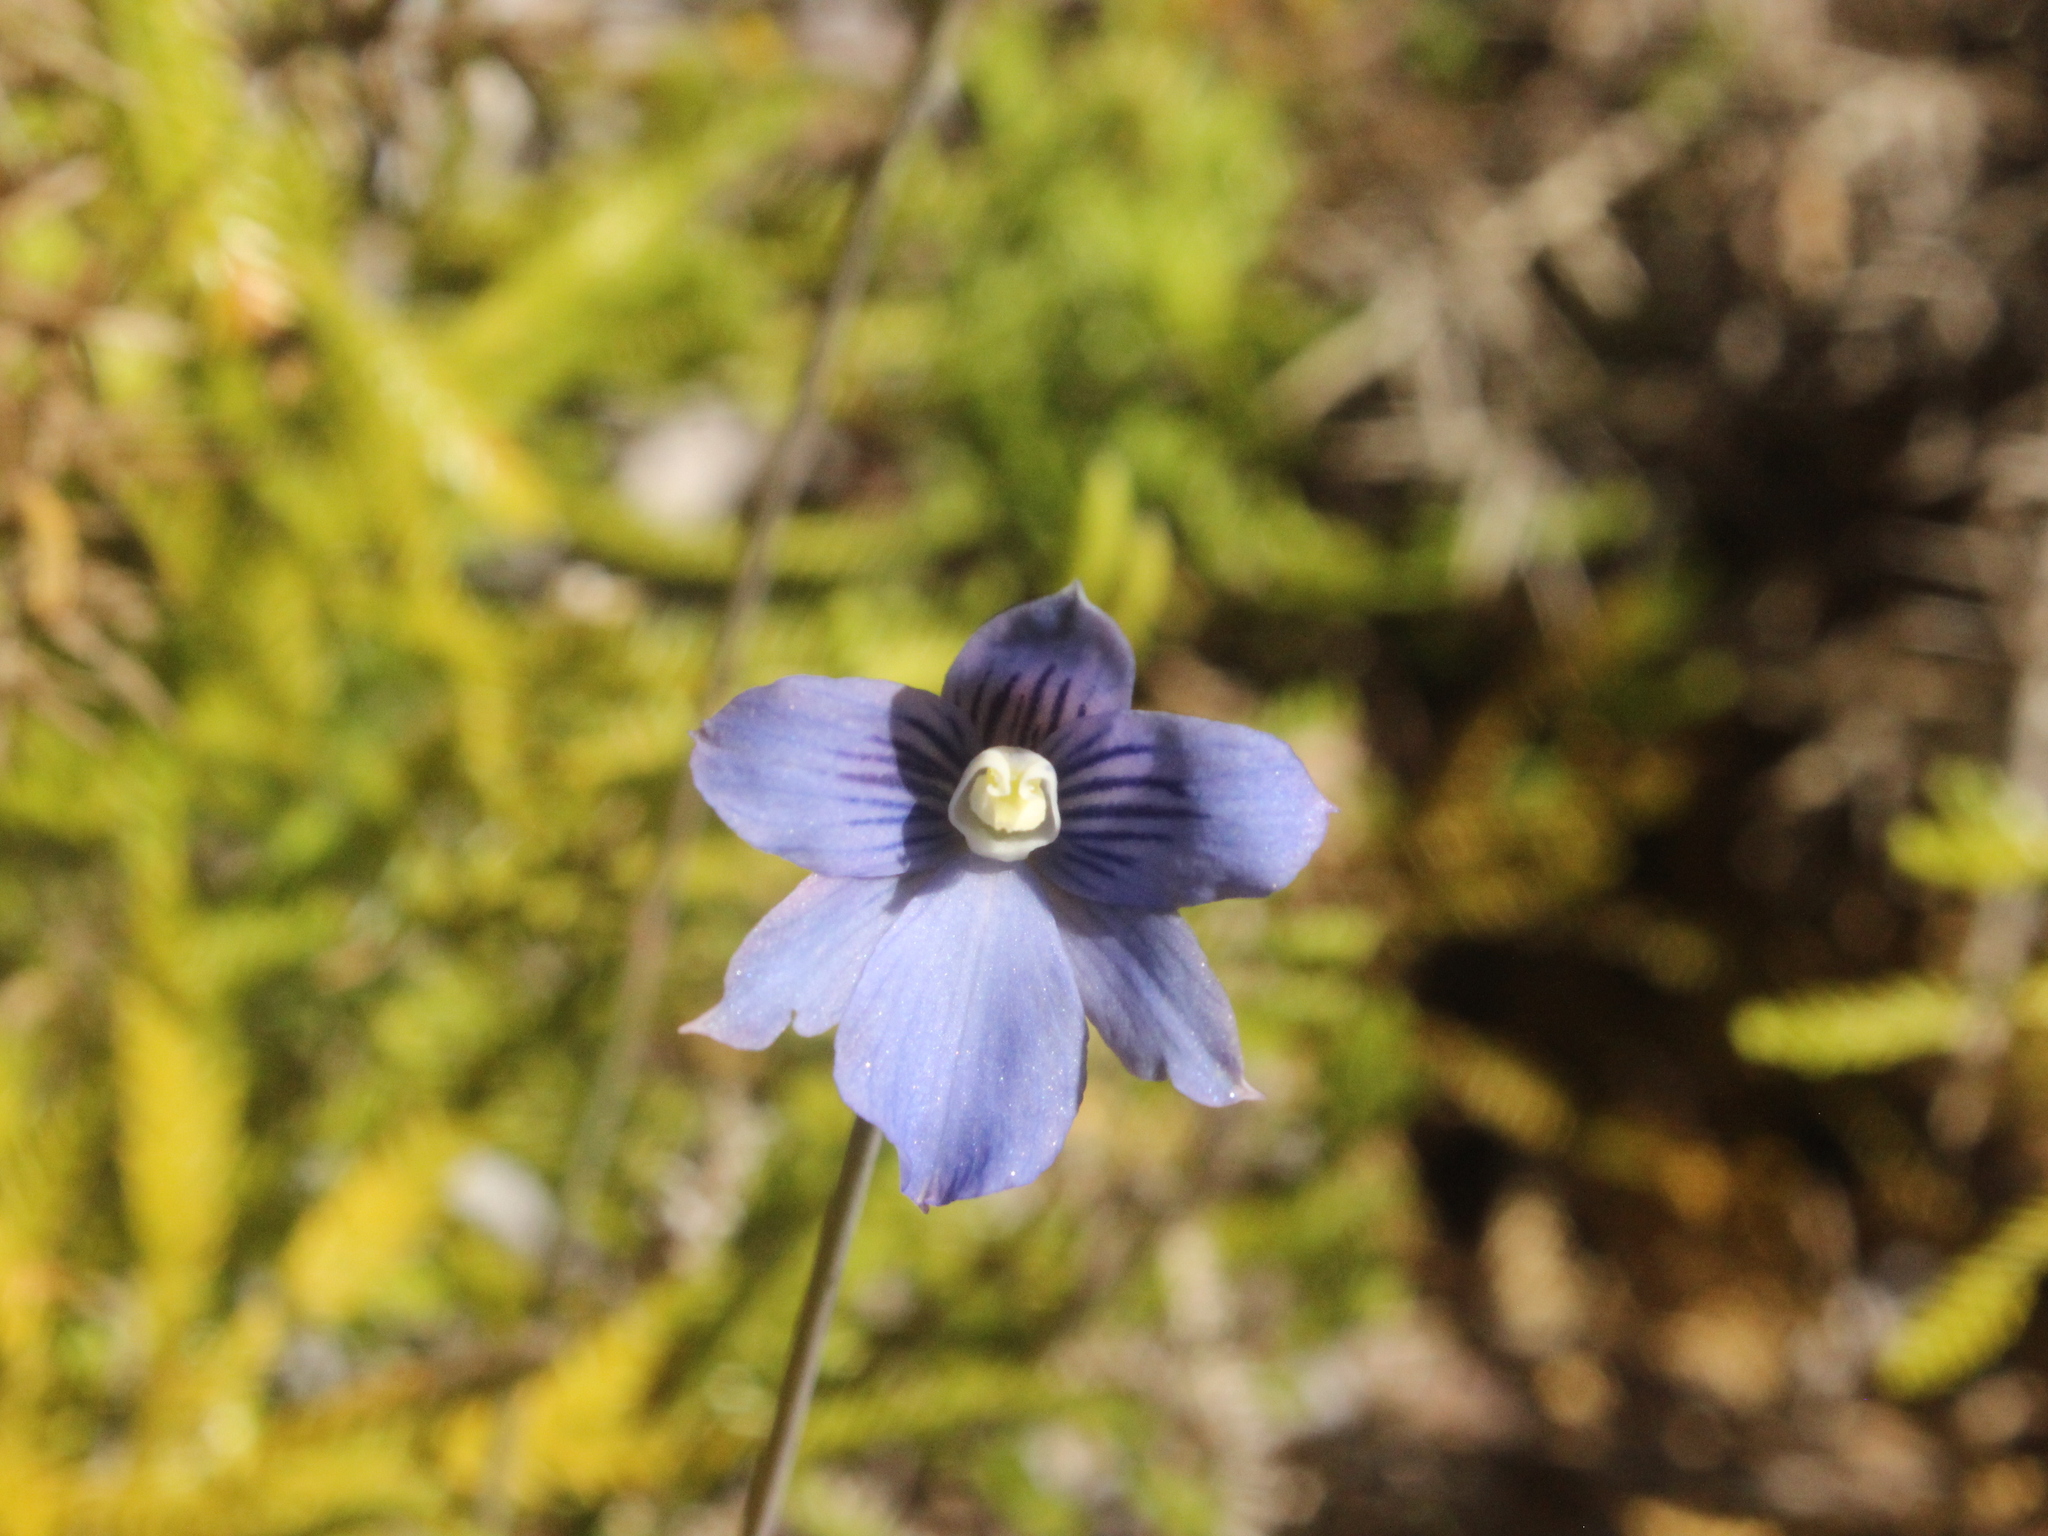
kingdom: Plantae
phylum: Tracheophyta
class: Liliopsida
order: Asparagales
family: Orchidaceae
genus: Thelymitra
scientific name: Thelymitra cyanea
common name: Blue sun-orchid
